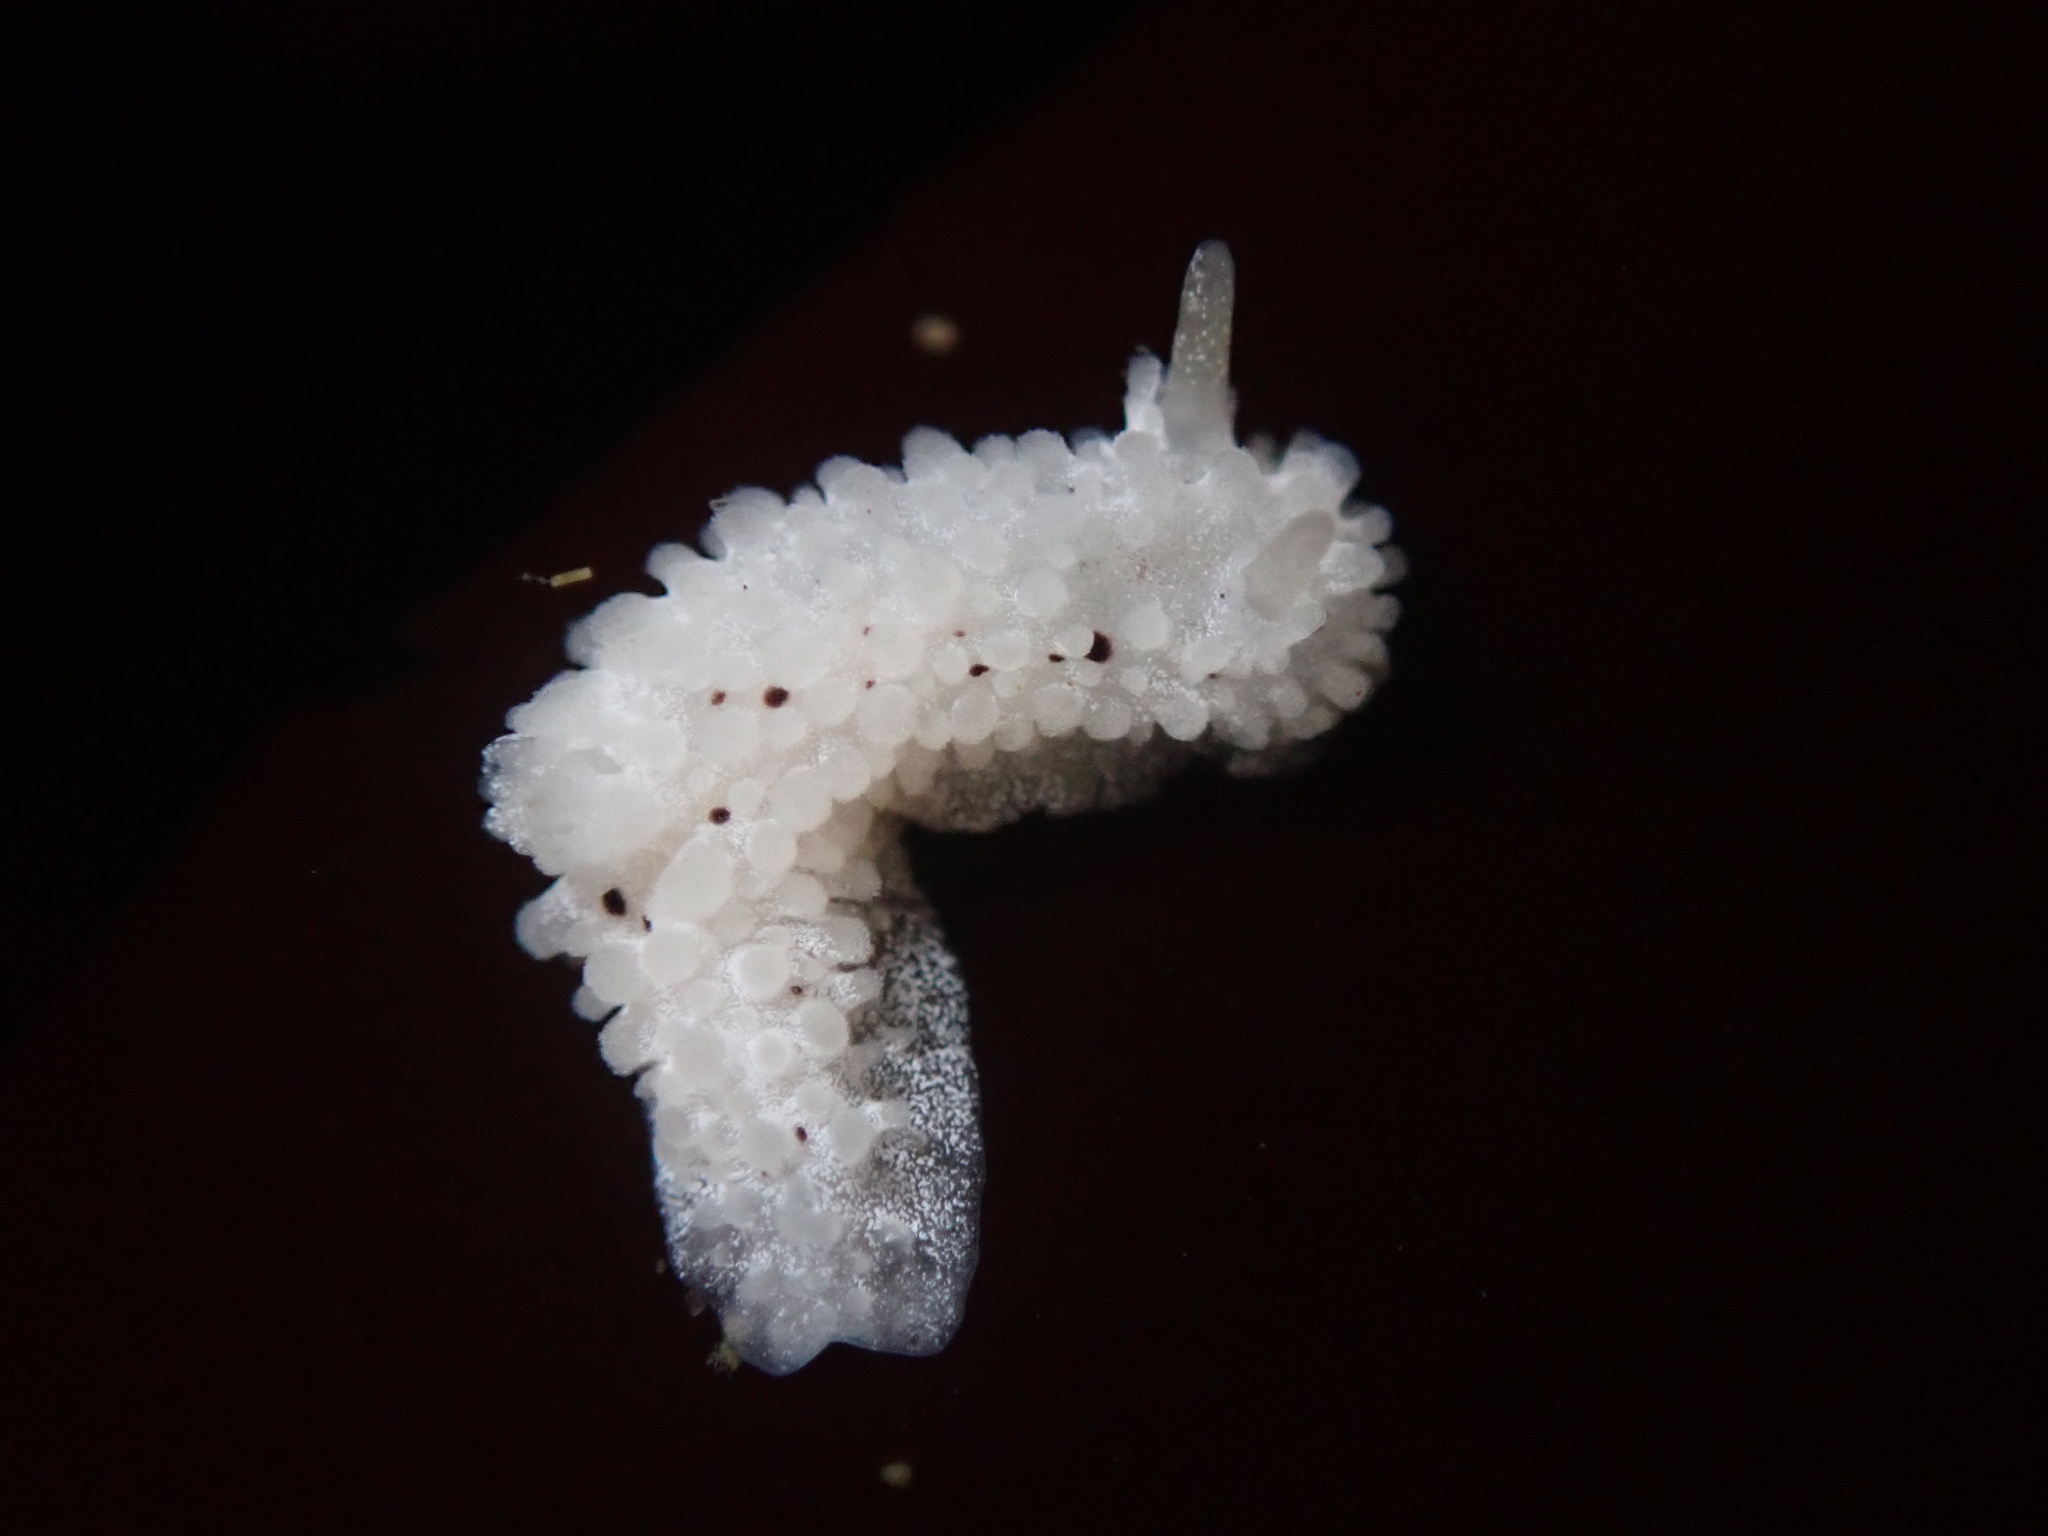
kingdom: Animalia
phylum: Mollusca
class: Gastropoda
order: Nudibranchia
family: Aegiridae
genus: Aegires
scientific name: Aegires albopunctatus
